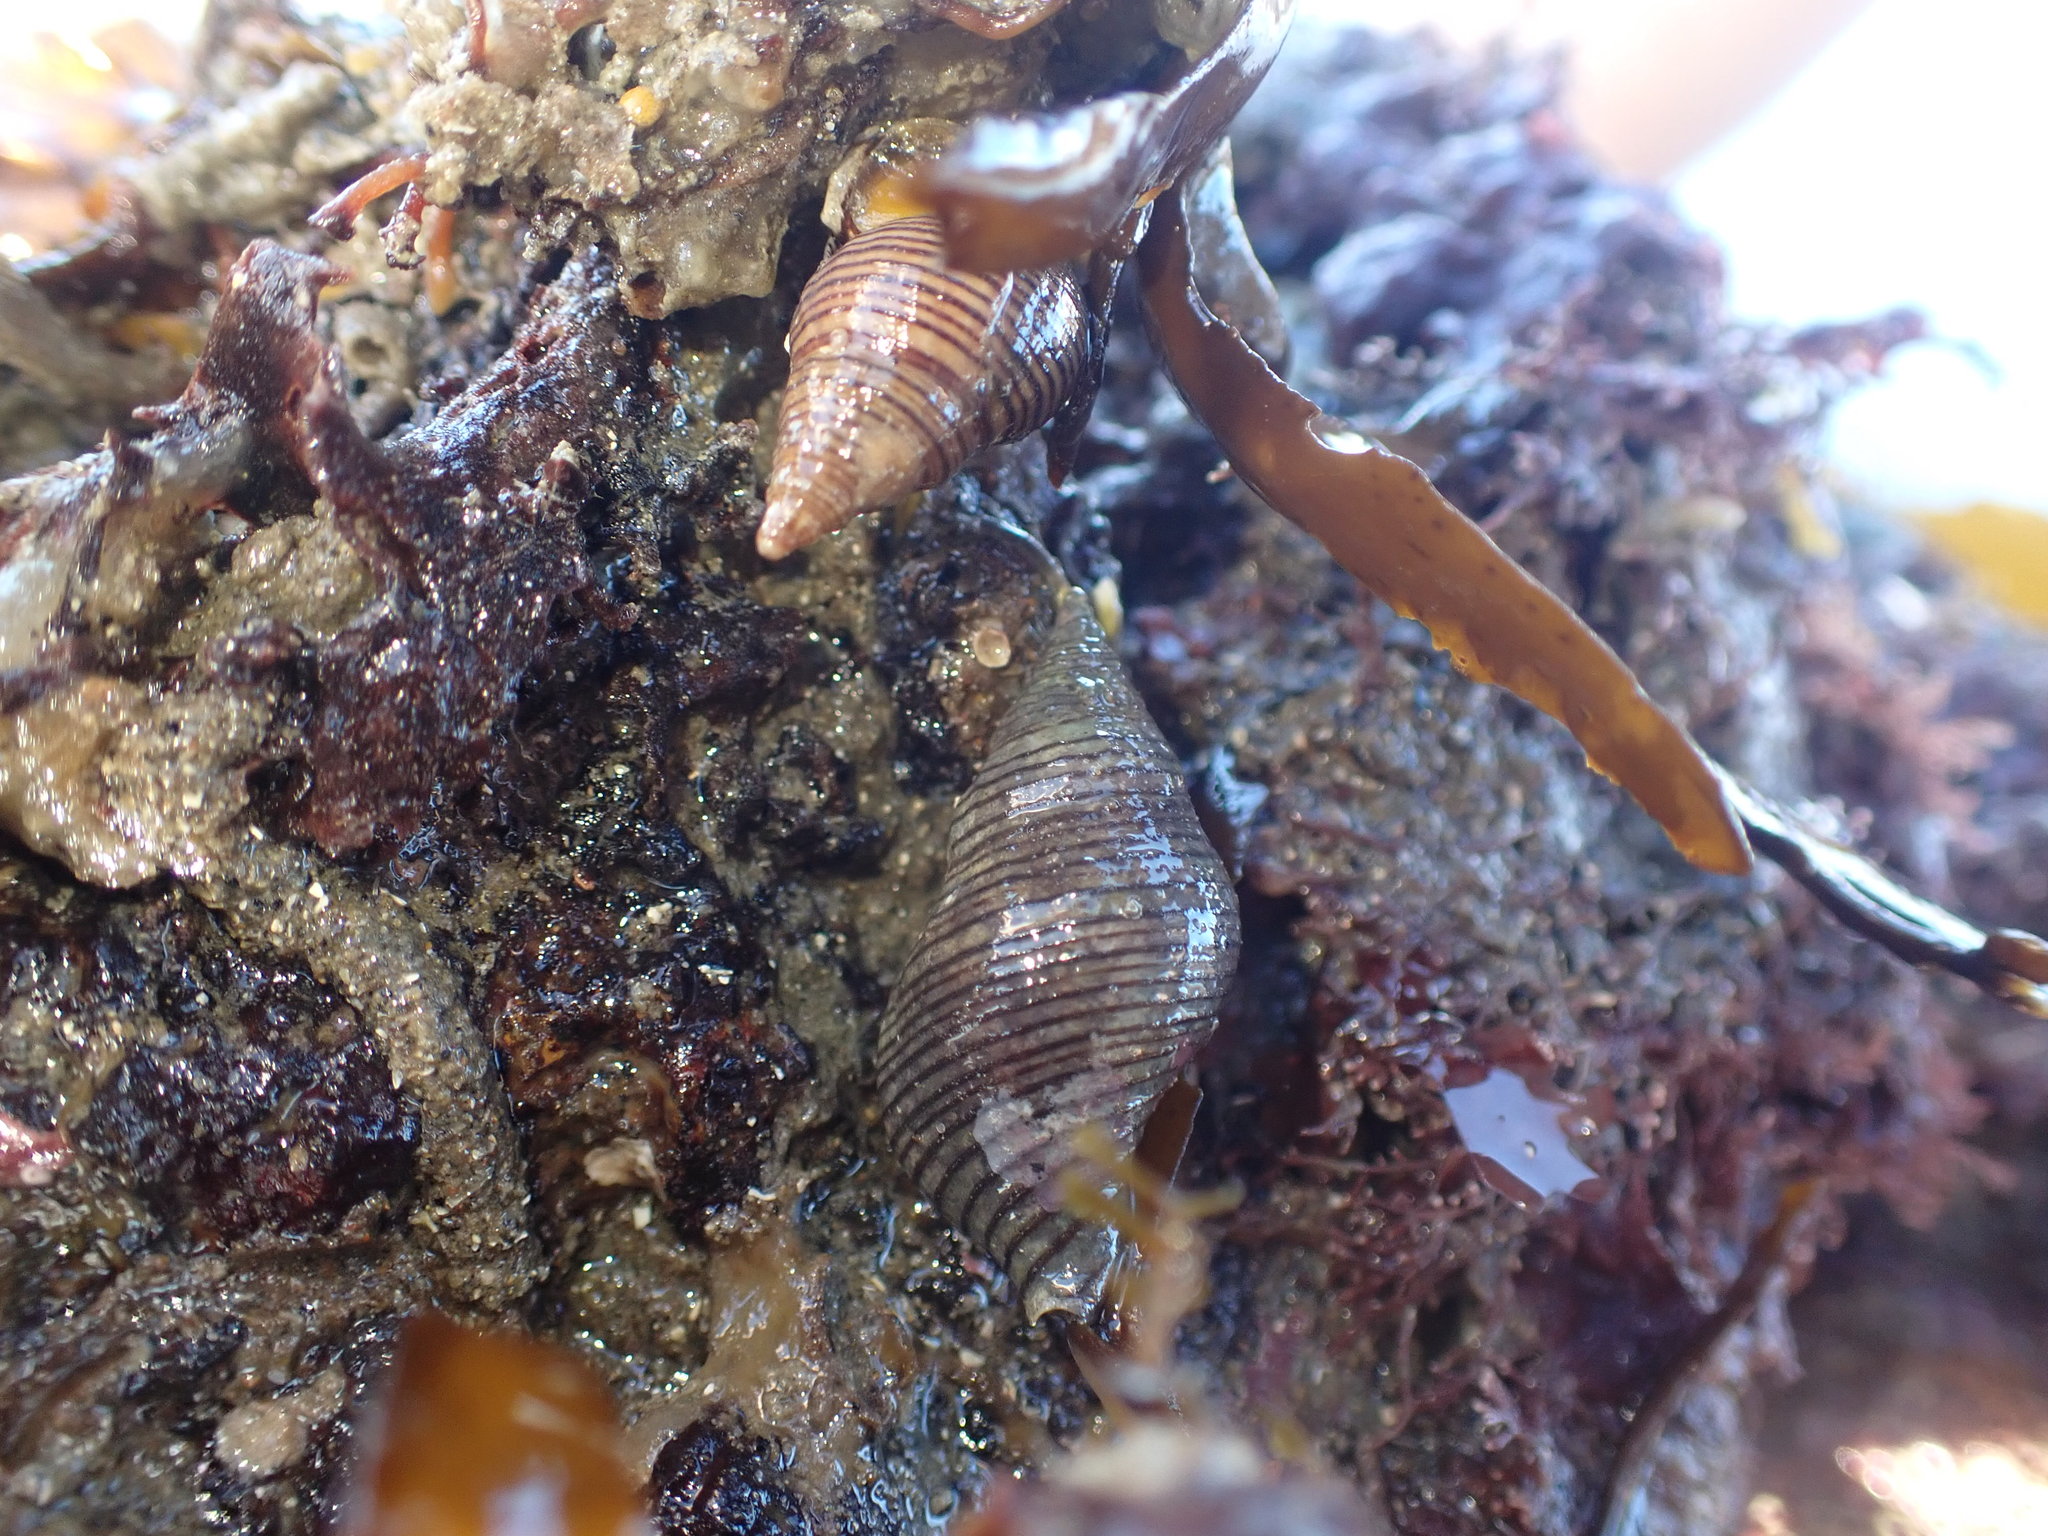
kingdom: Animalia
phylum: Mollusca
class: Gastropoda
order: Neogastropoda
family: Tudiclidae
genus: Buccinulum
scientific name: Buccinulum linea
